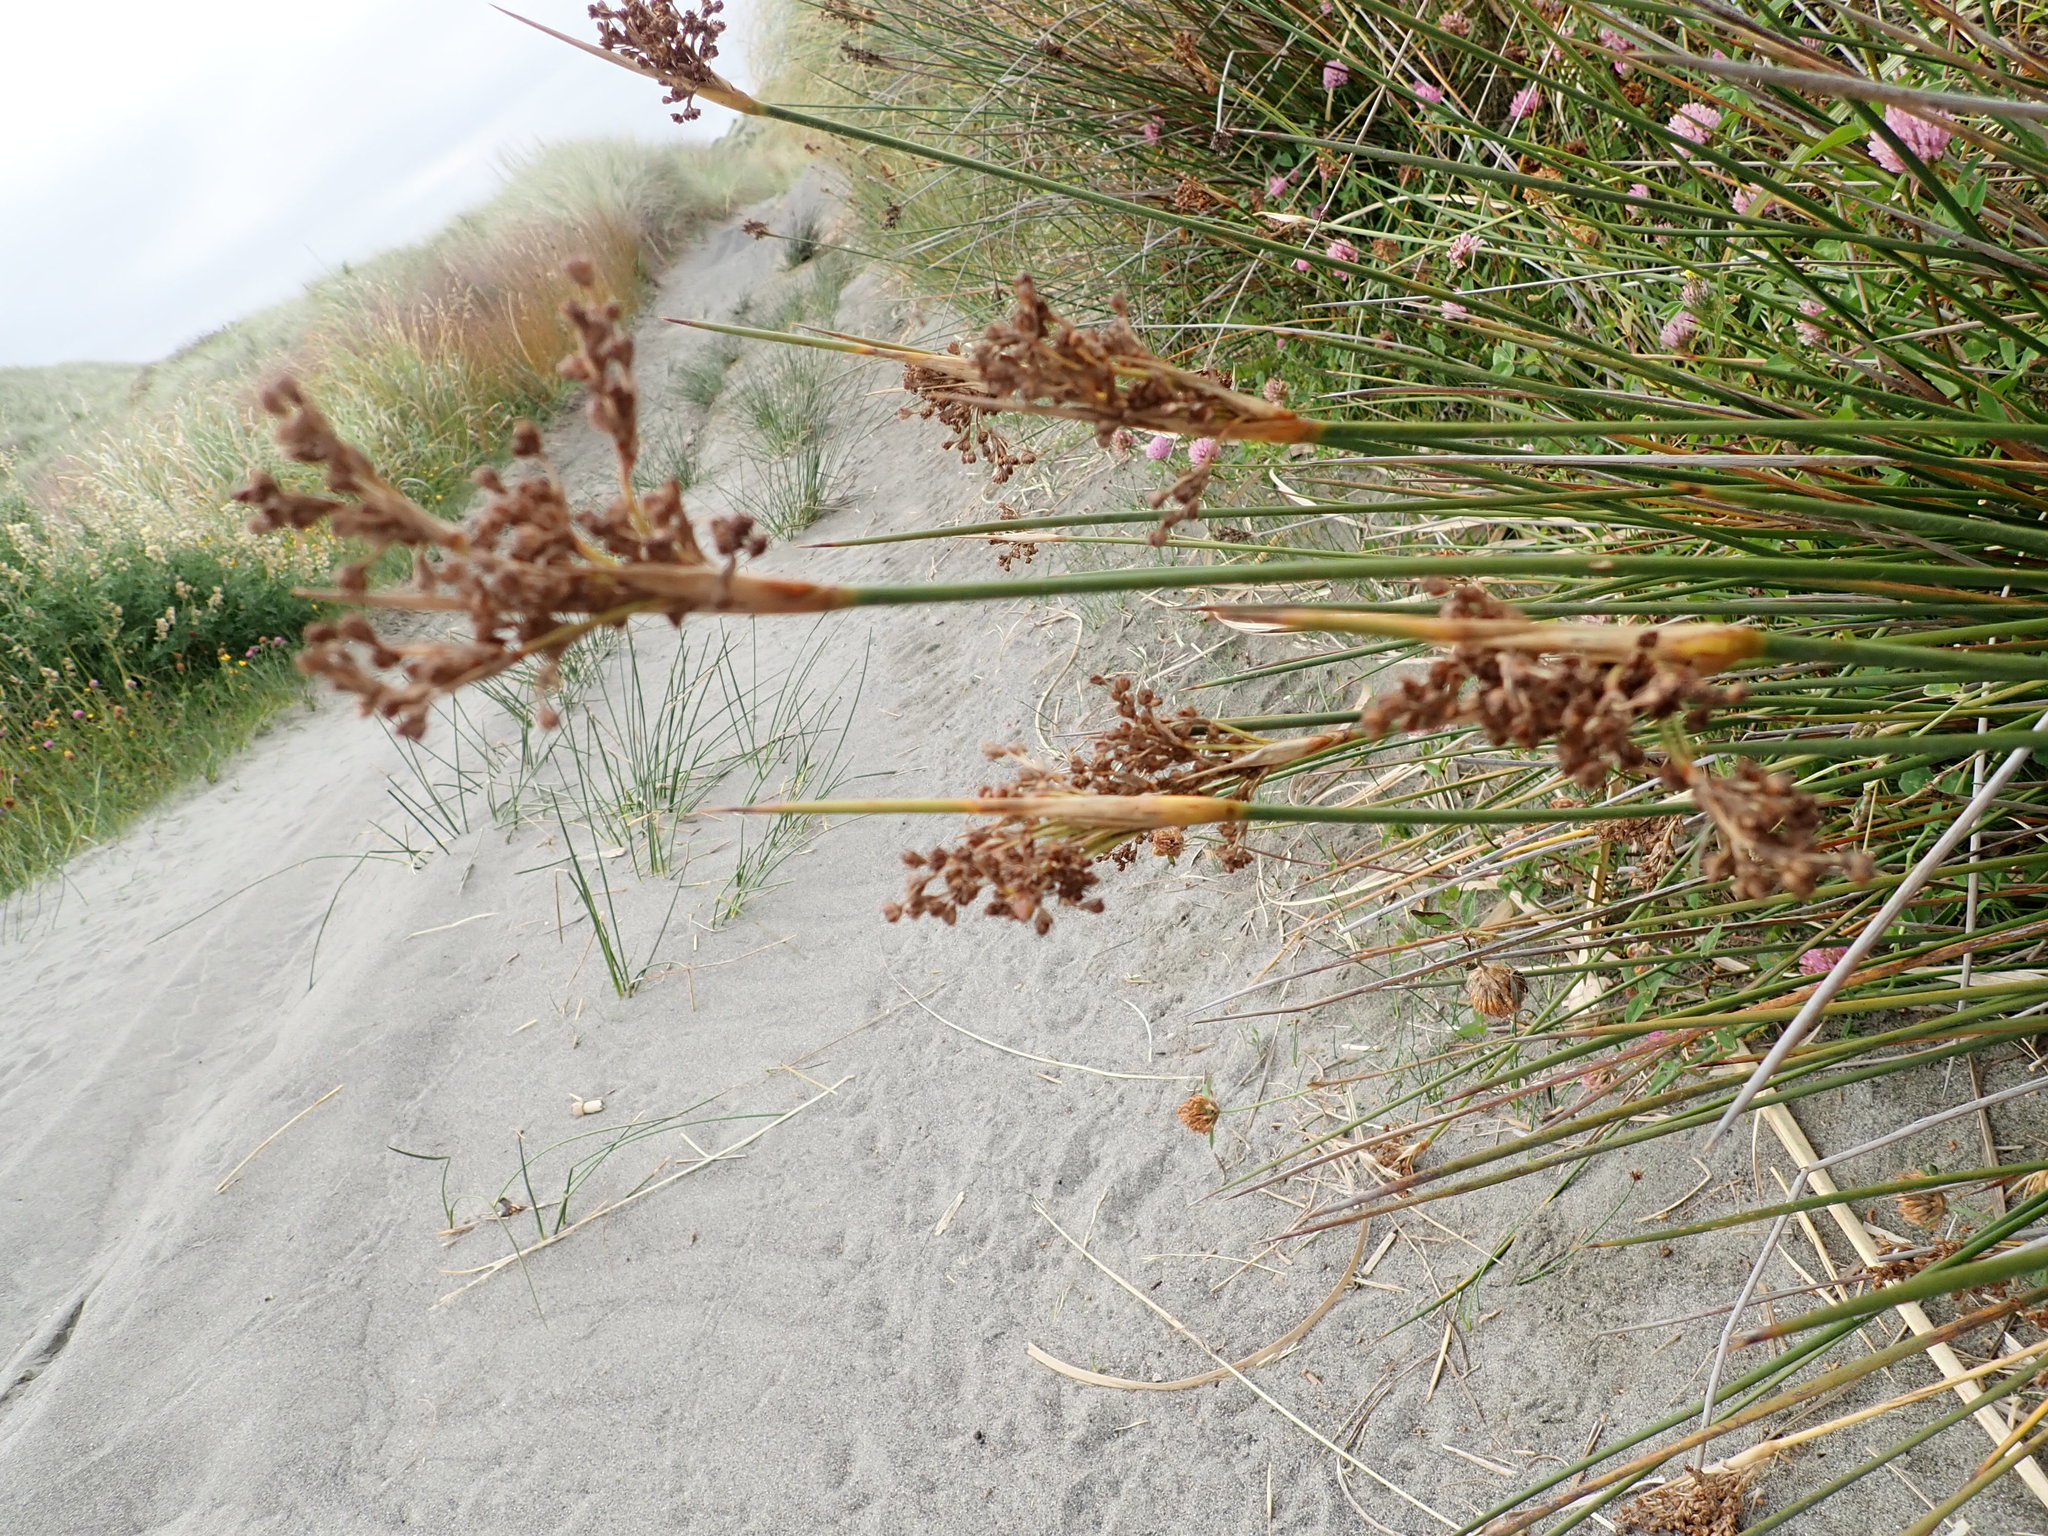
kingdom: Plantae
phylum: Tracheophyta
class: Liliopsida
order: Poales
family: Juncaceae
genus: Juncus
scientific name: Juncus acutus
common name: Sharp rush
